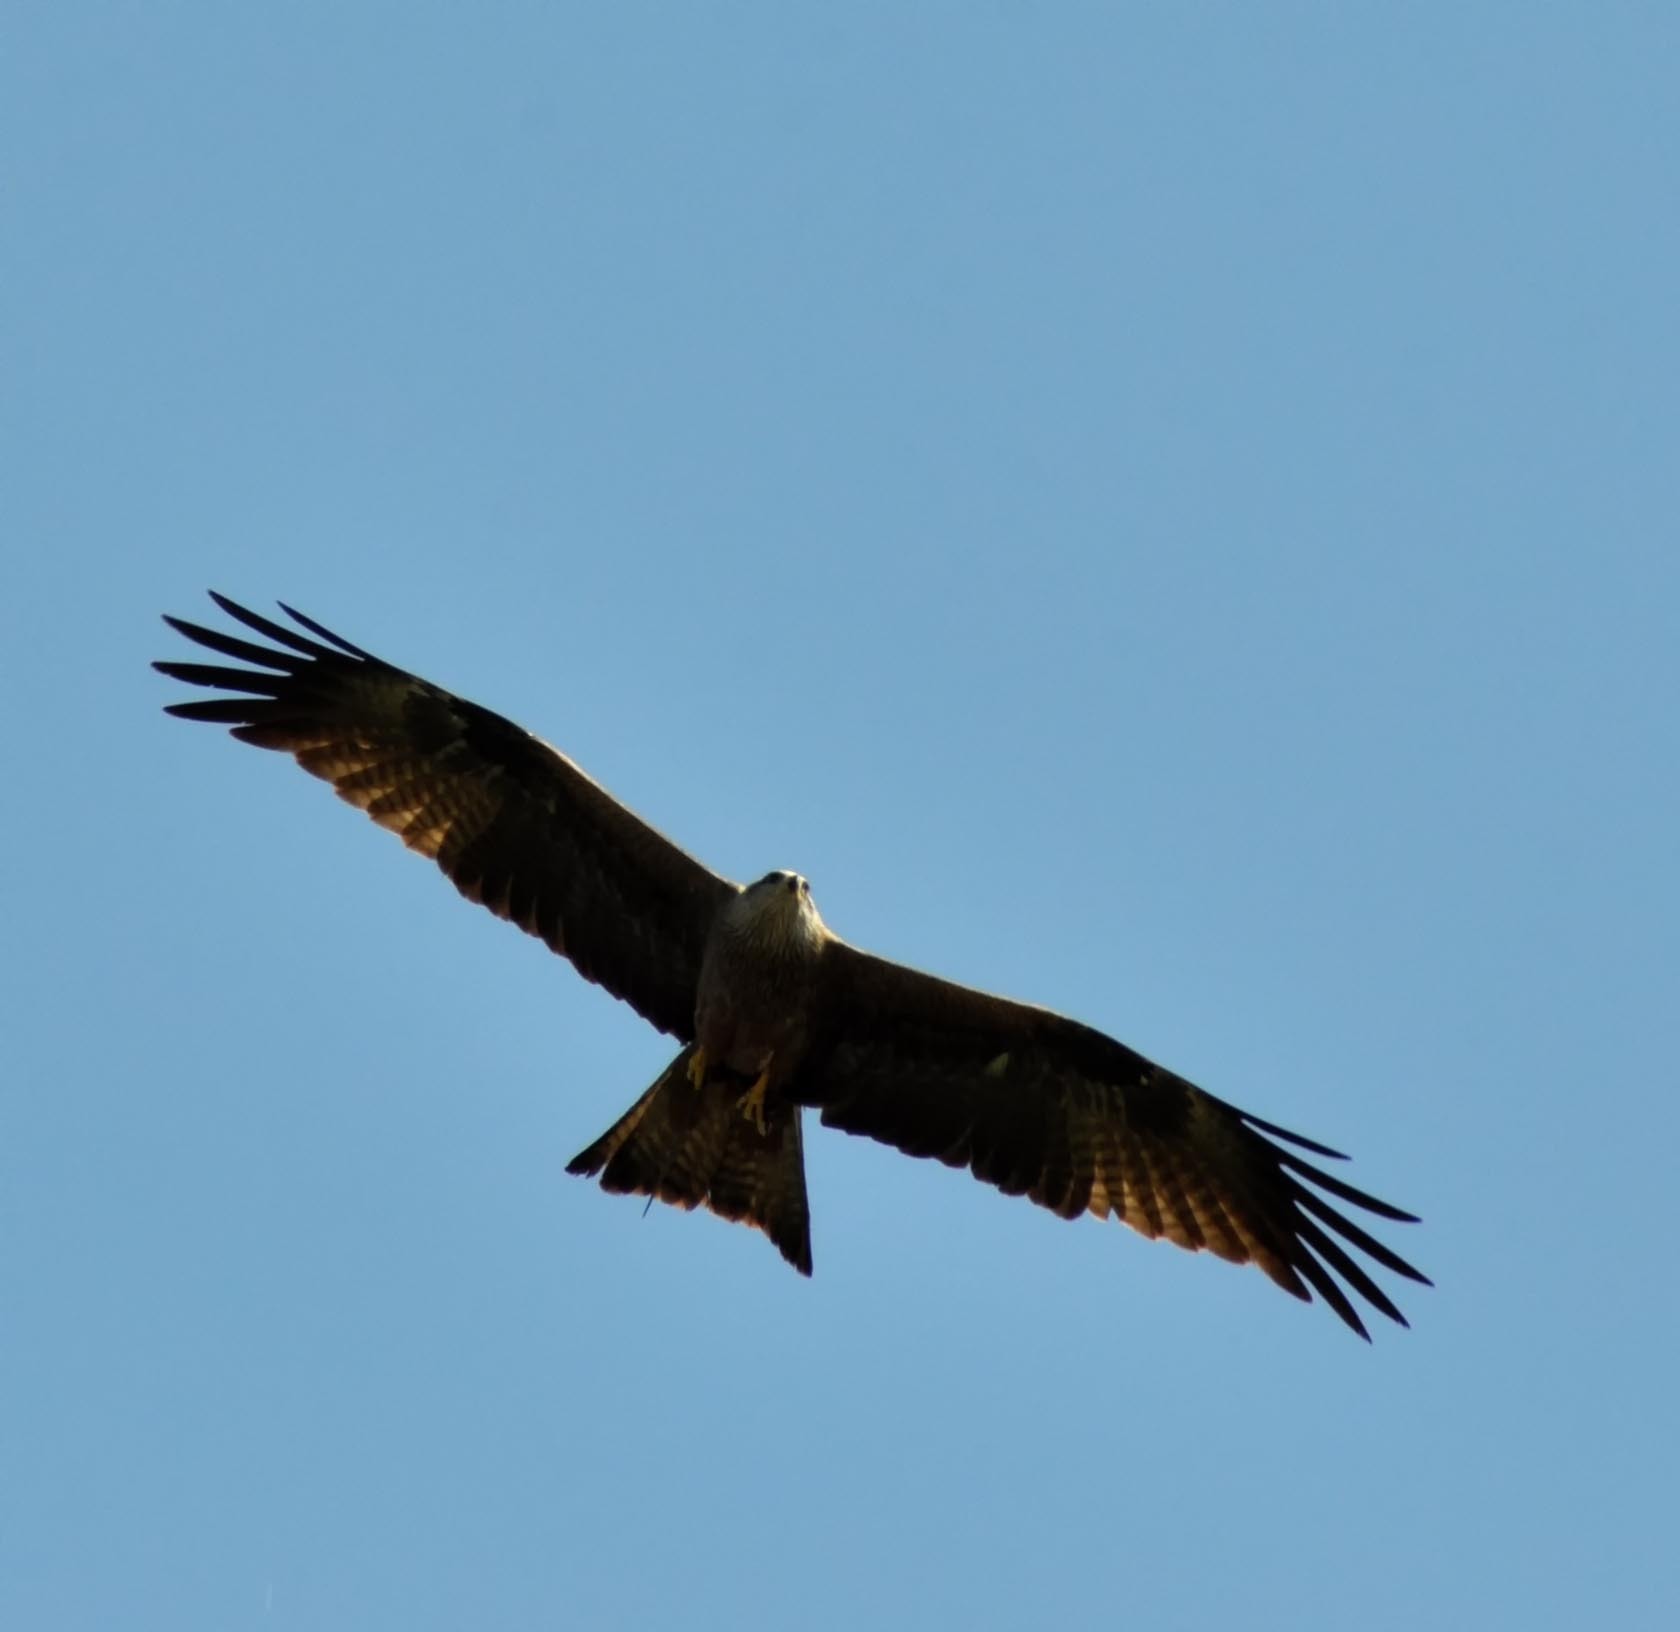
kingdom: Animalia
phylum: Chordata
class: Aves
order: Accipitriformes
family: Accipitridae
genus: Milvus
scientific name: Milvus migrans
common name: Black kite
